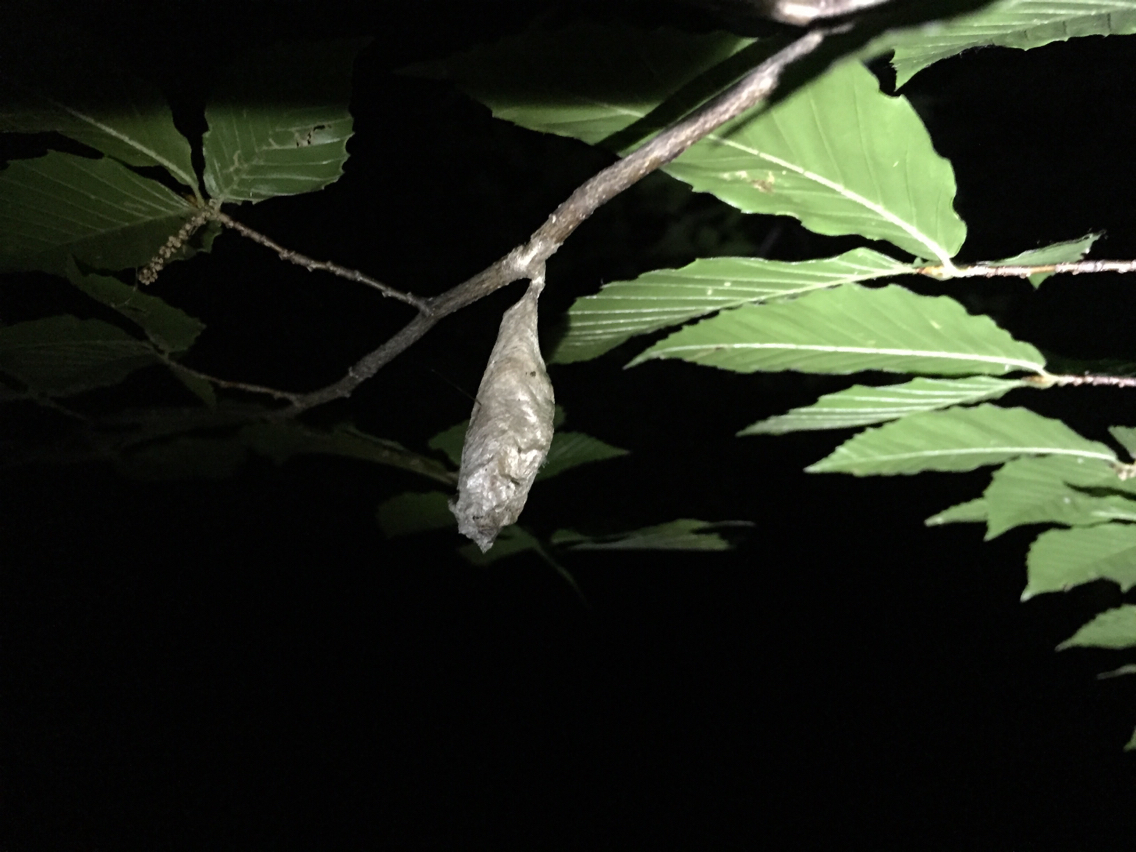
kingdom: Animalia
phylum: Arthropoda
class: Insecta
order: Lepidoptera
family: Saturniidae
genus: Callosamia
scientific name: Callosamia promethea
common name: Promethea silkmoth
